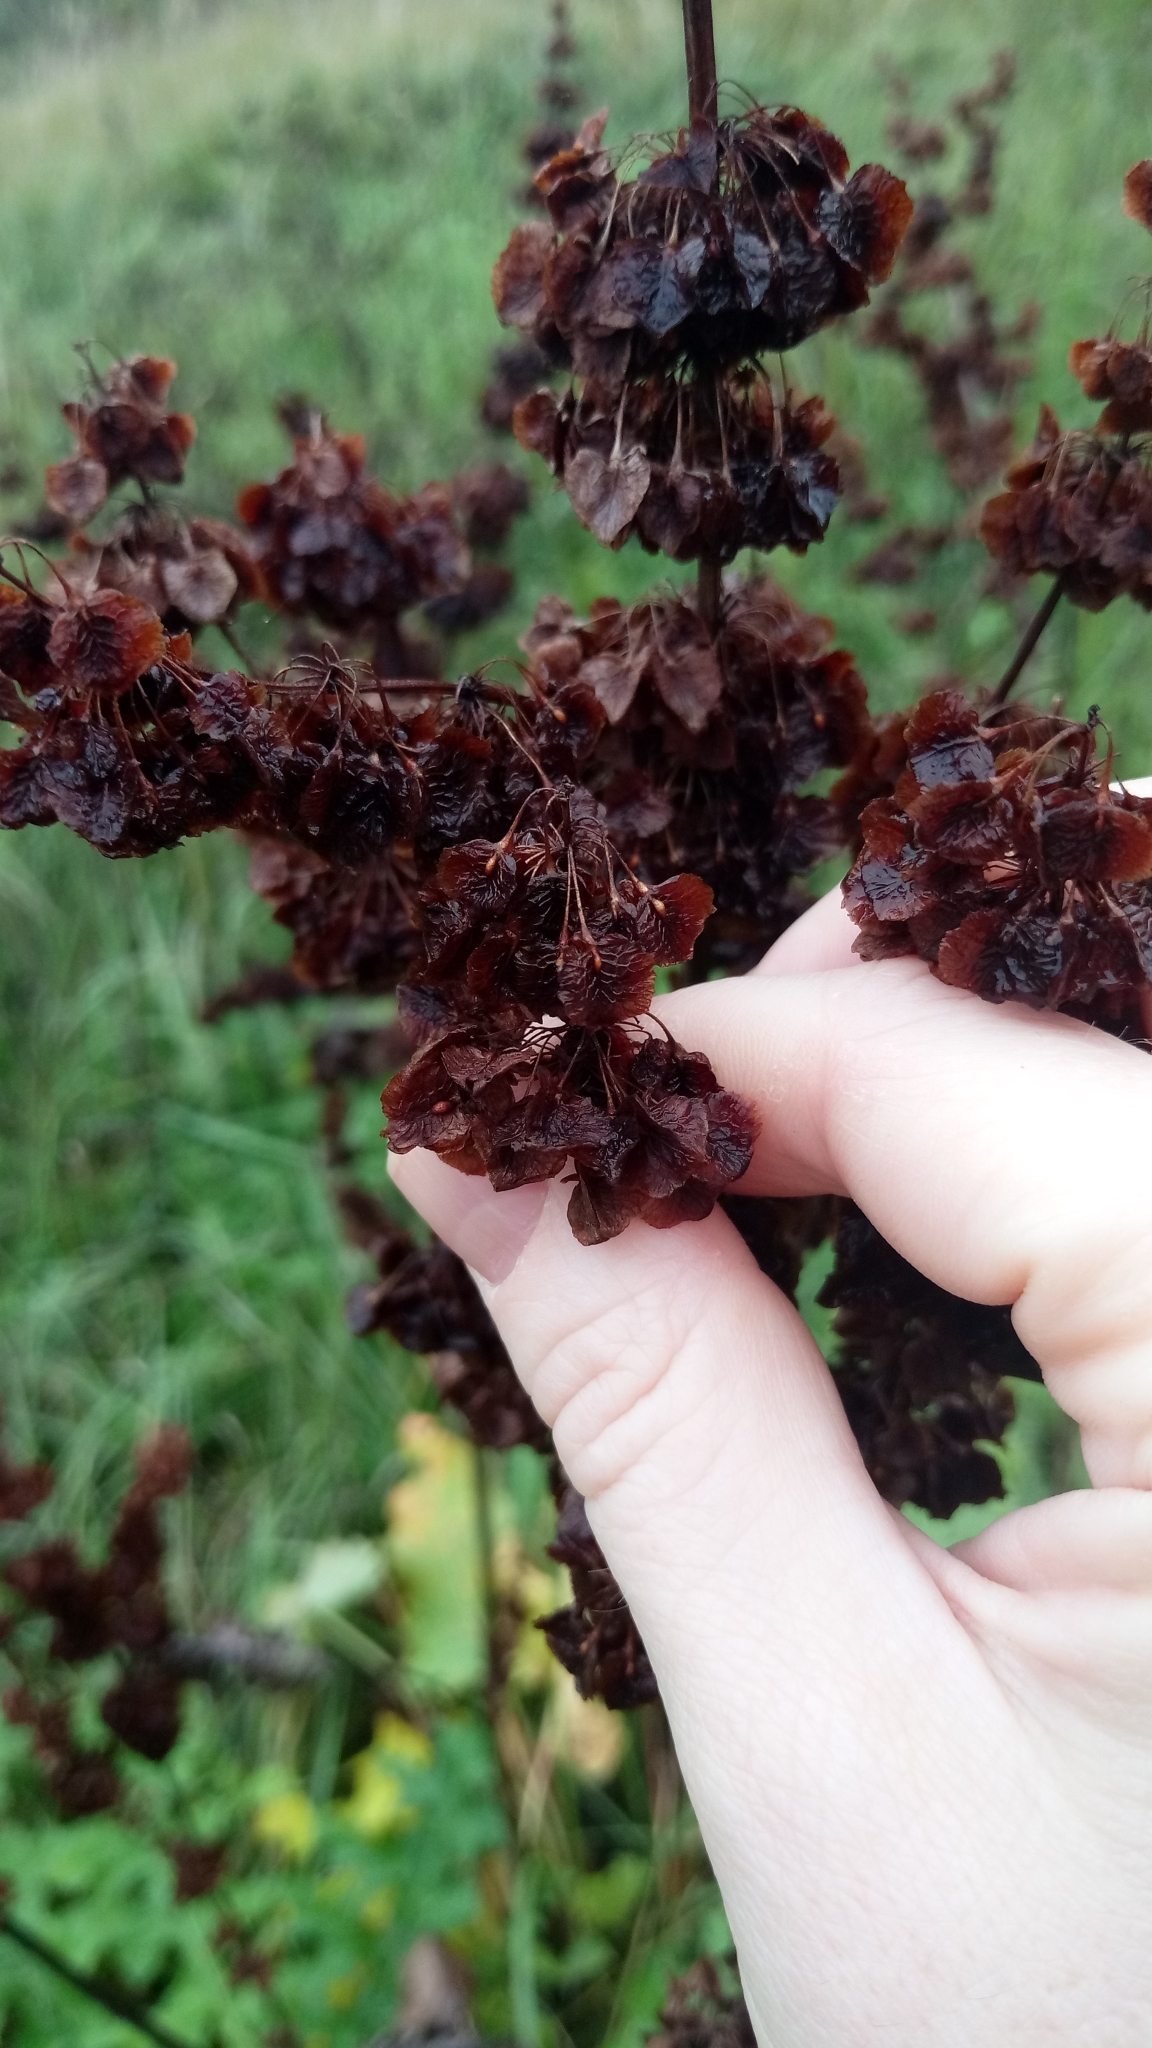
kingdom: Plantae
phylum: Tracheophyta
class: Magnoliopsida
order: Caryophyllales
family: Polygonaceae
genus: Rumex
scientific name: Rumex confertus
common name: Russian dock
